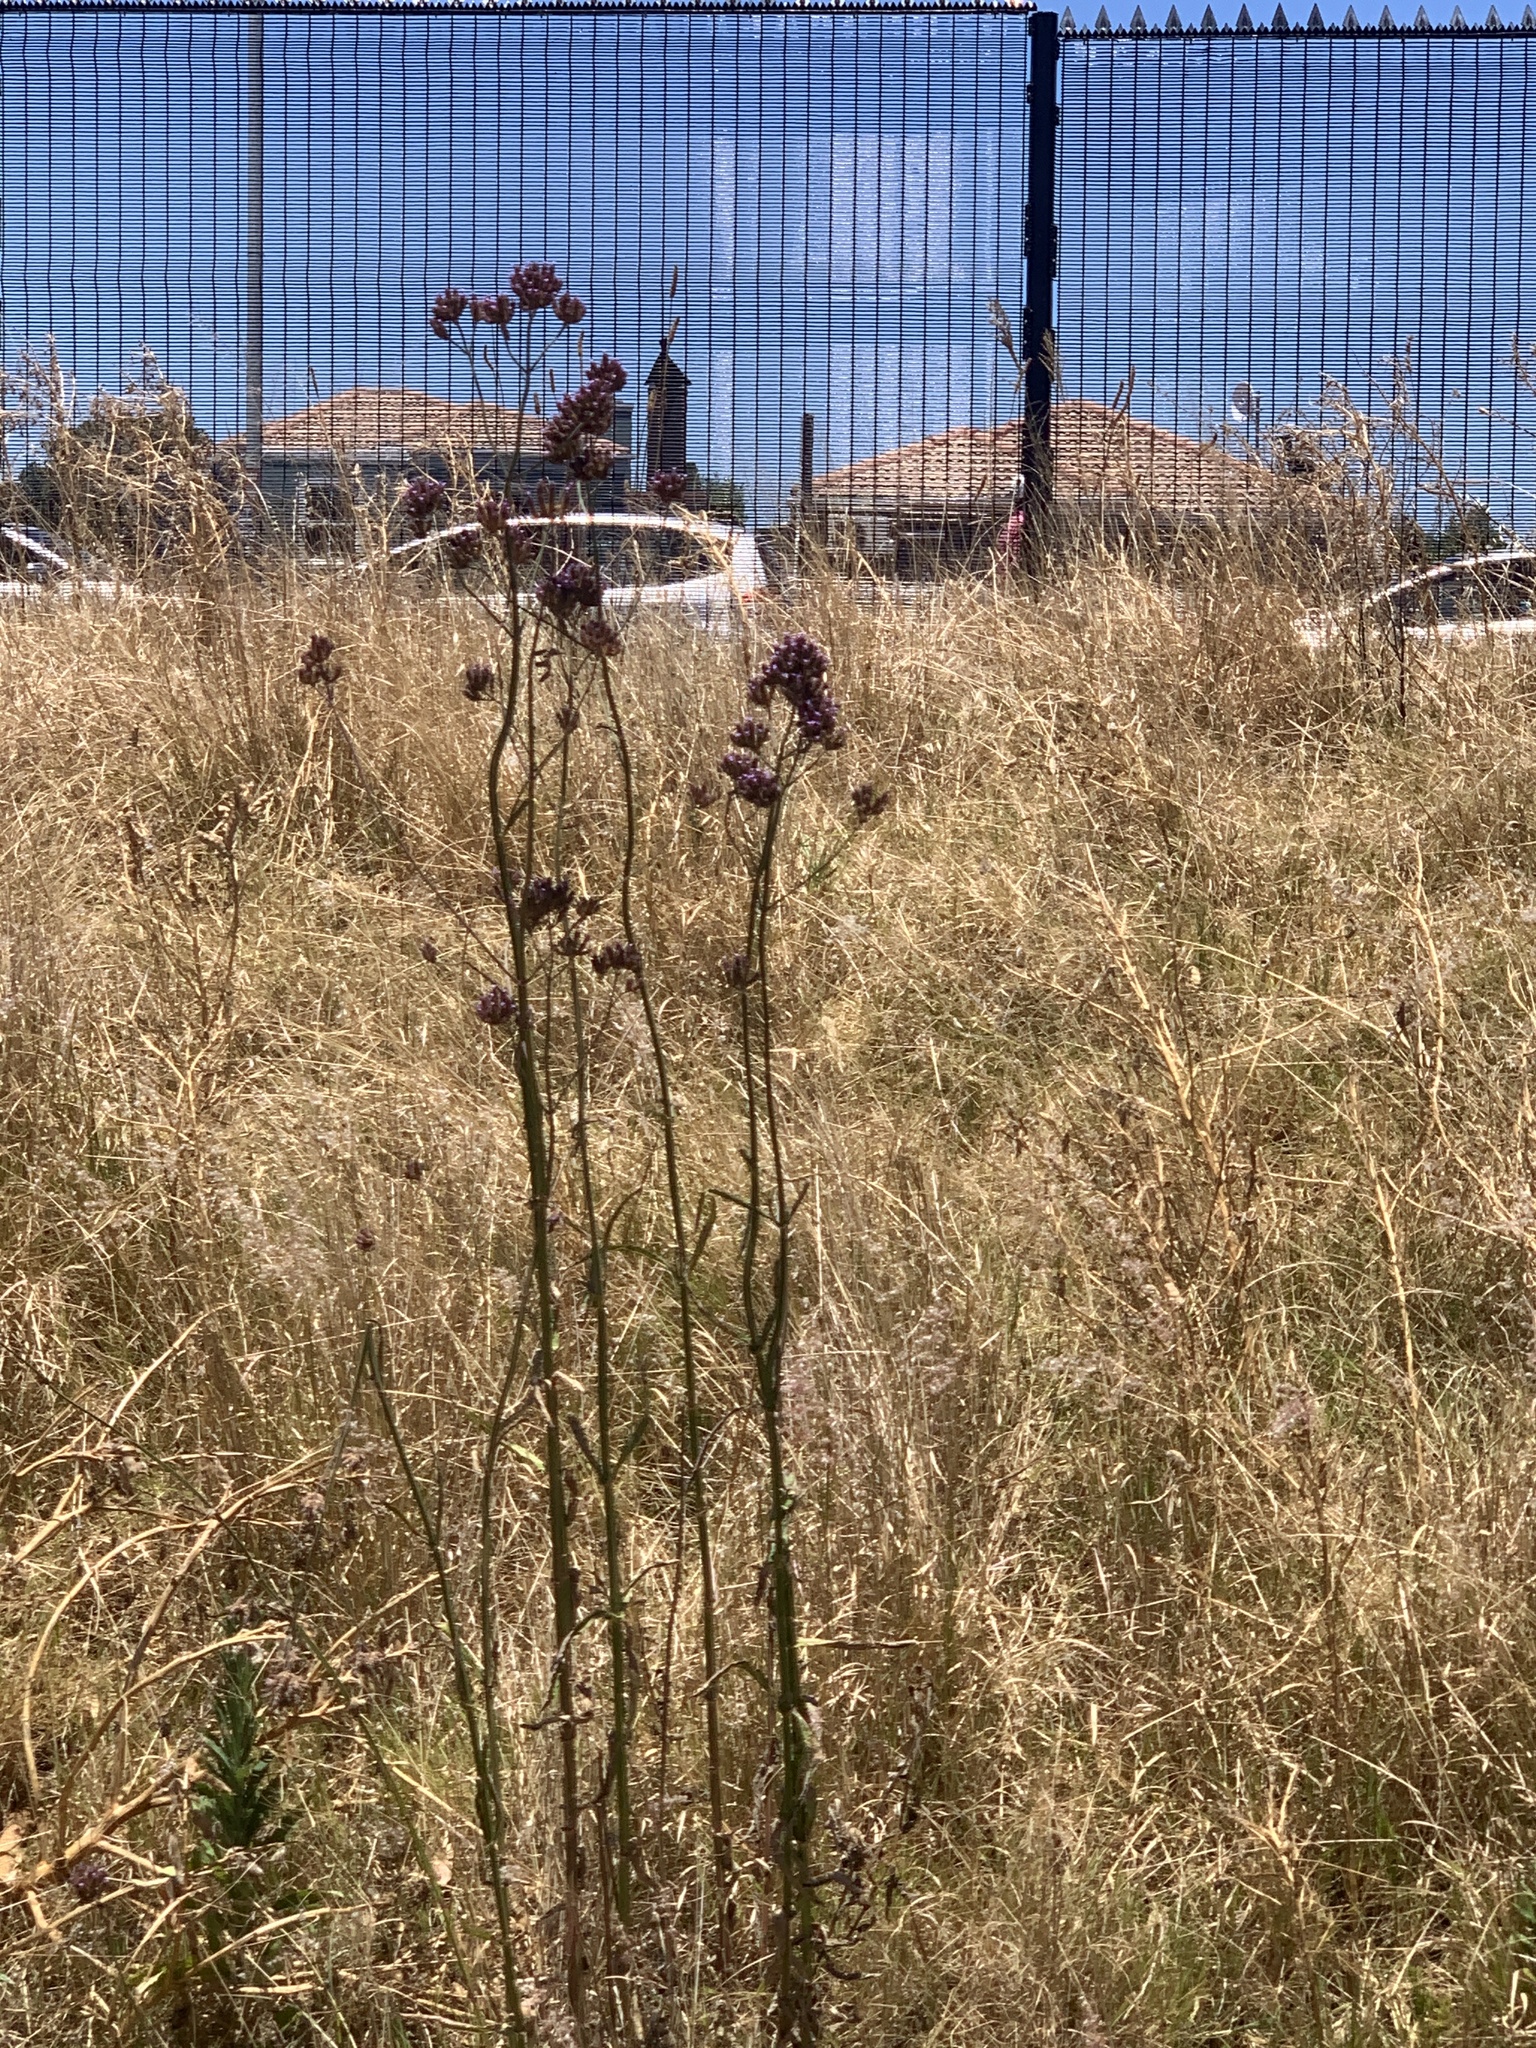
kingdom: Plantae
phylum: Tracheophyta
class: Magnoliopsida
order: Lamiales
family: Verbenaceae
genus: Verbena
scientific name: Verbena bonariensis
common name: Purpletop vervain
